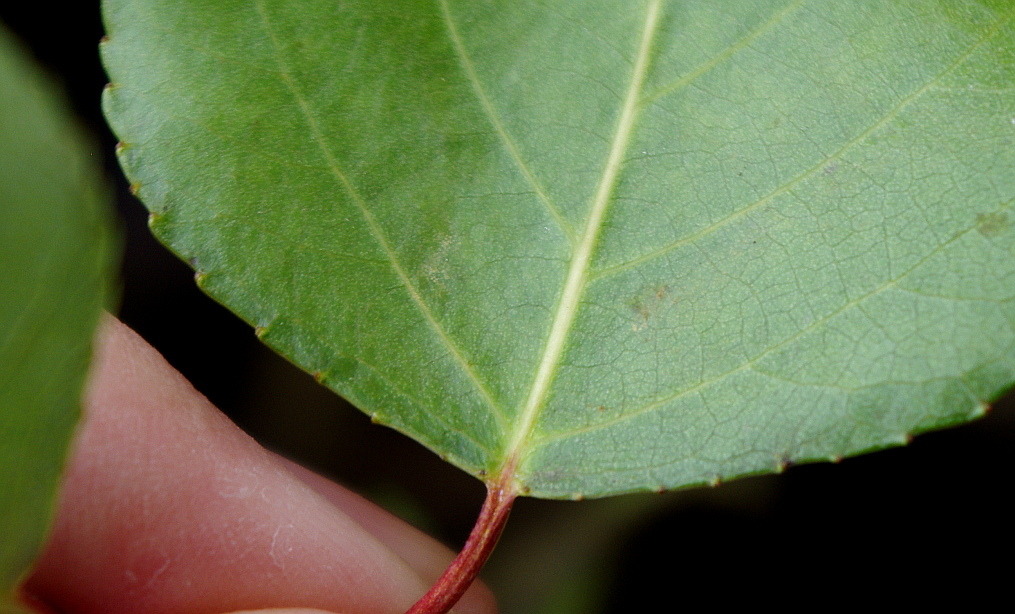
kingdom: Plantae
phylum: Tracheophyta
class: Magnoliopsida
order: Malpighiales
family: Salicaceae
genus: Populus
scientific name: Populus
